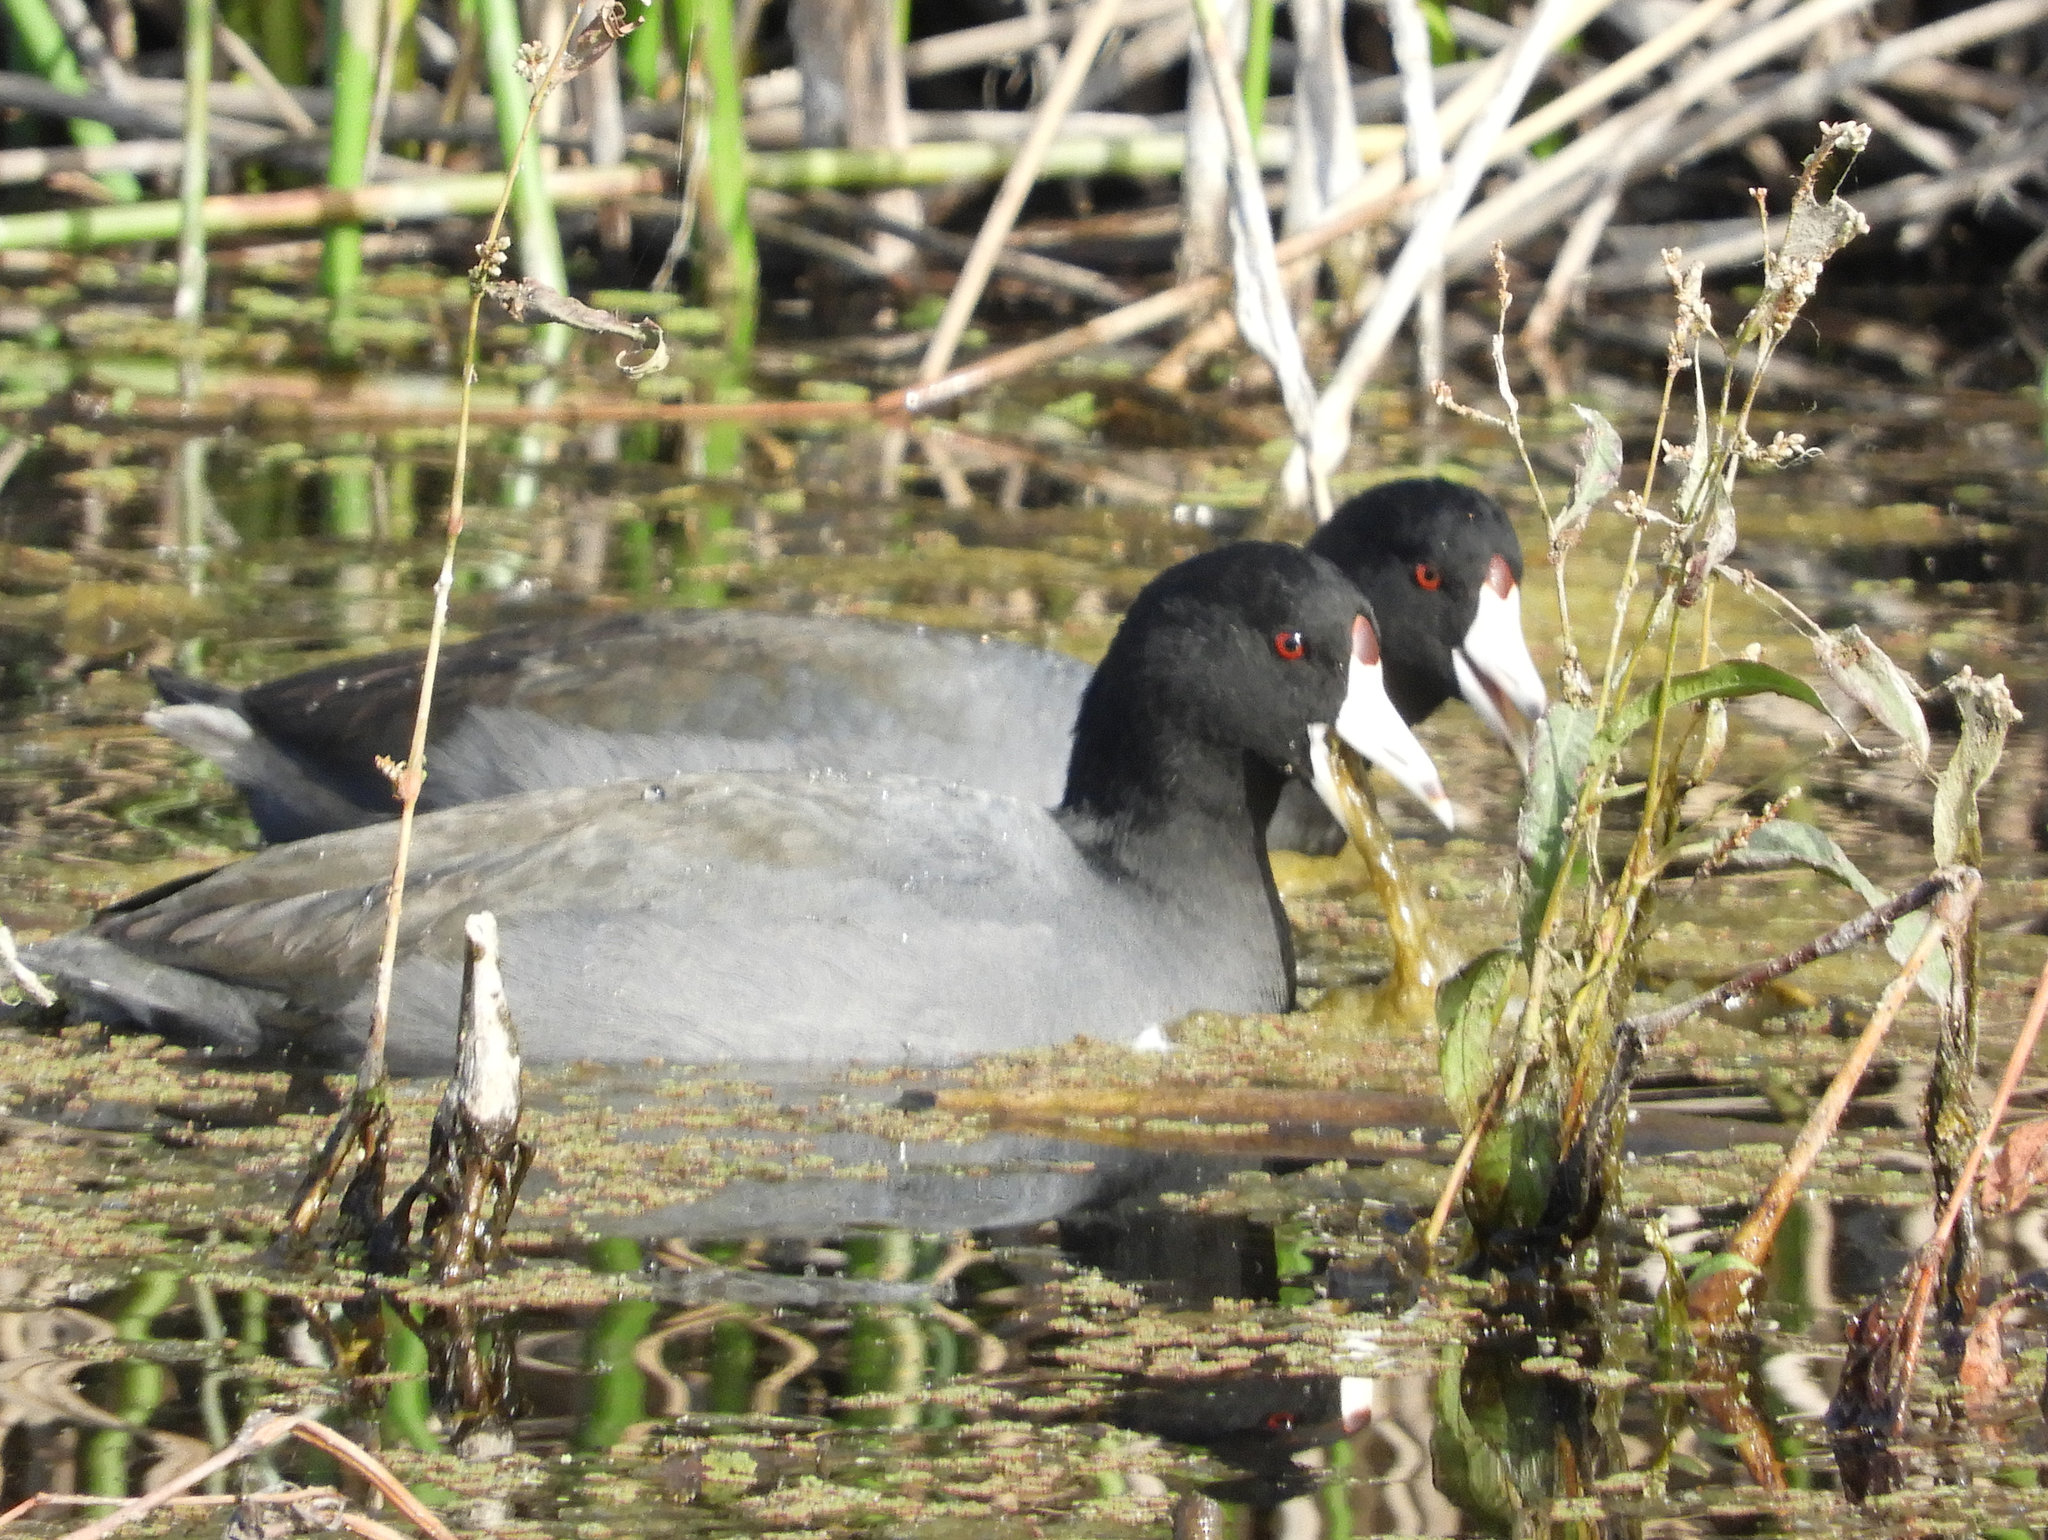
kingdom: Animalia
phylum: Chordata
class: Aves
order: Gruiformes
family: Rallidae
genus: Fulica
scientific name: Fulica americana
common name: American coot
